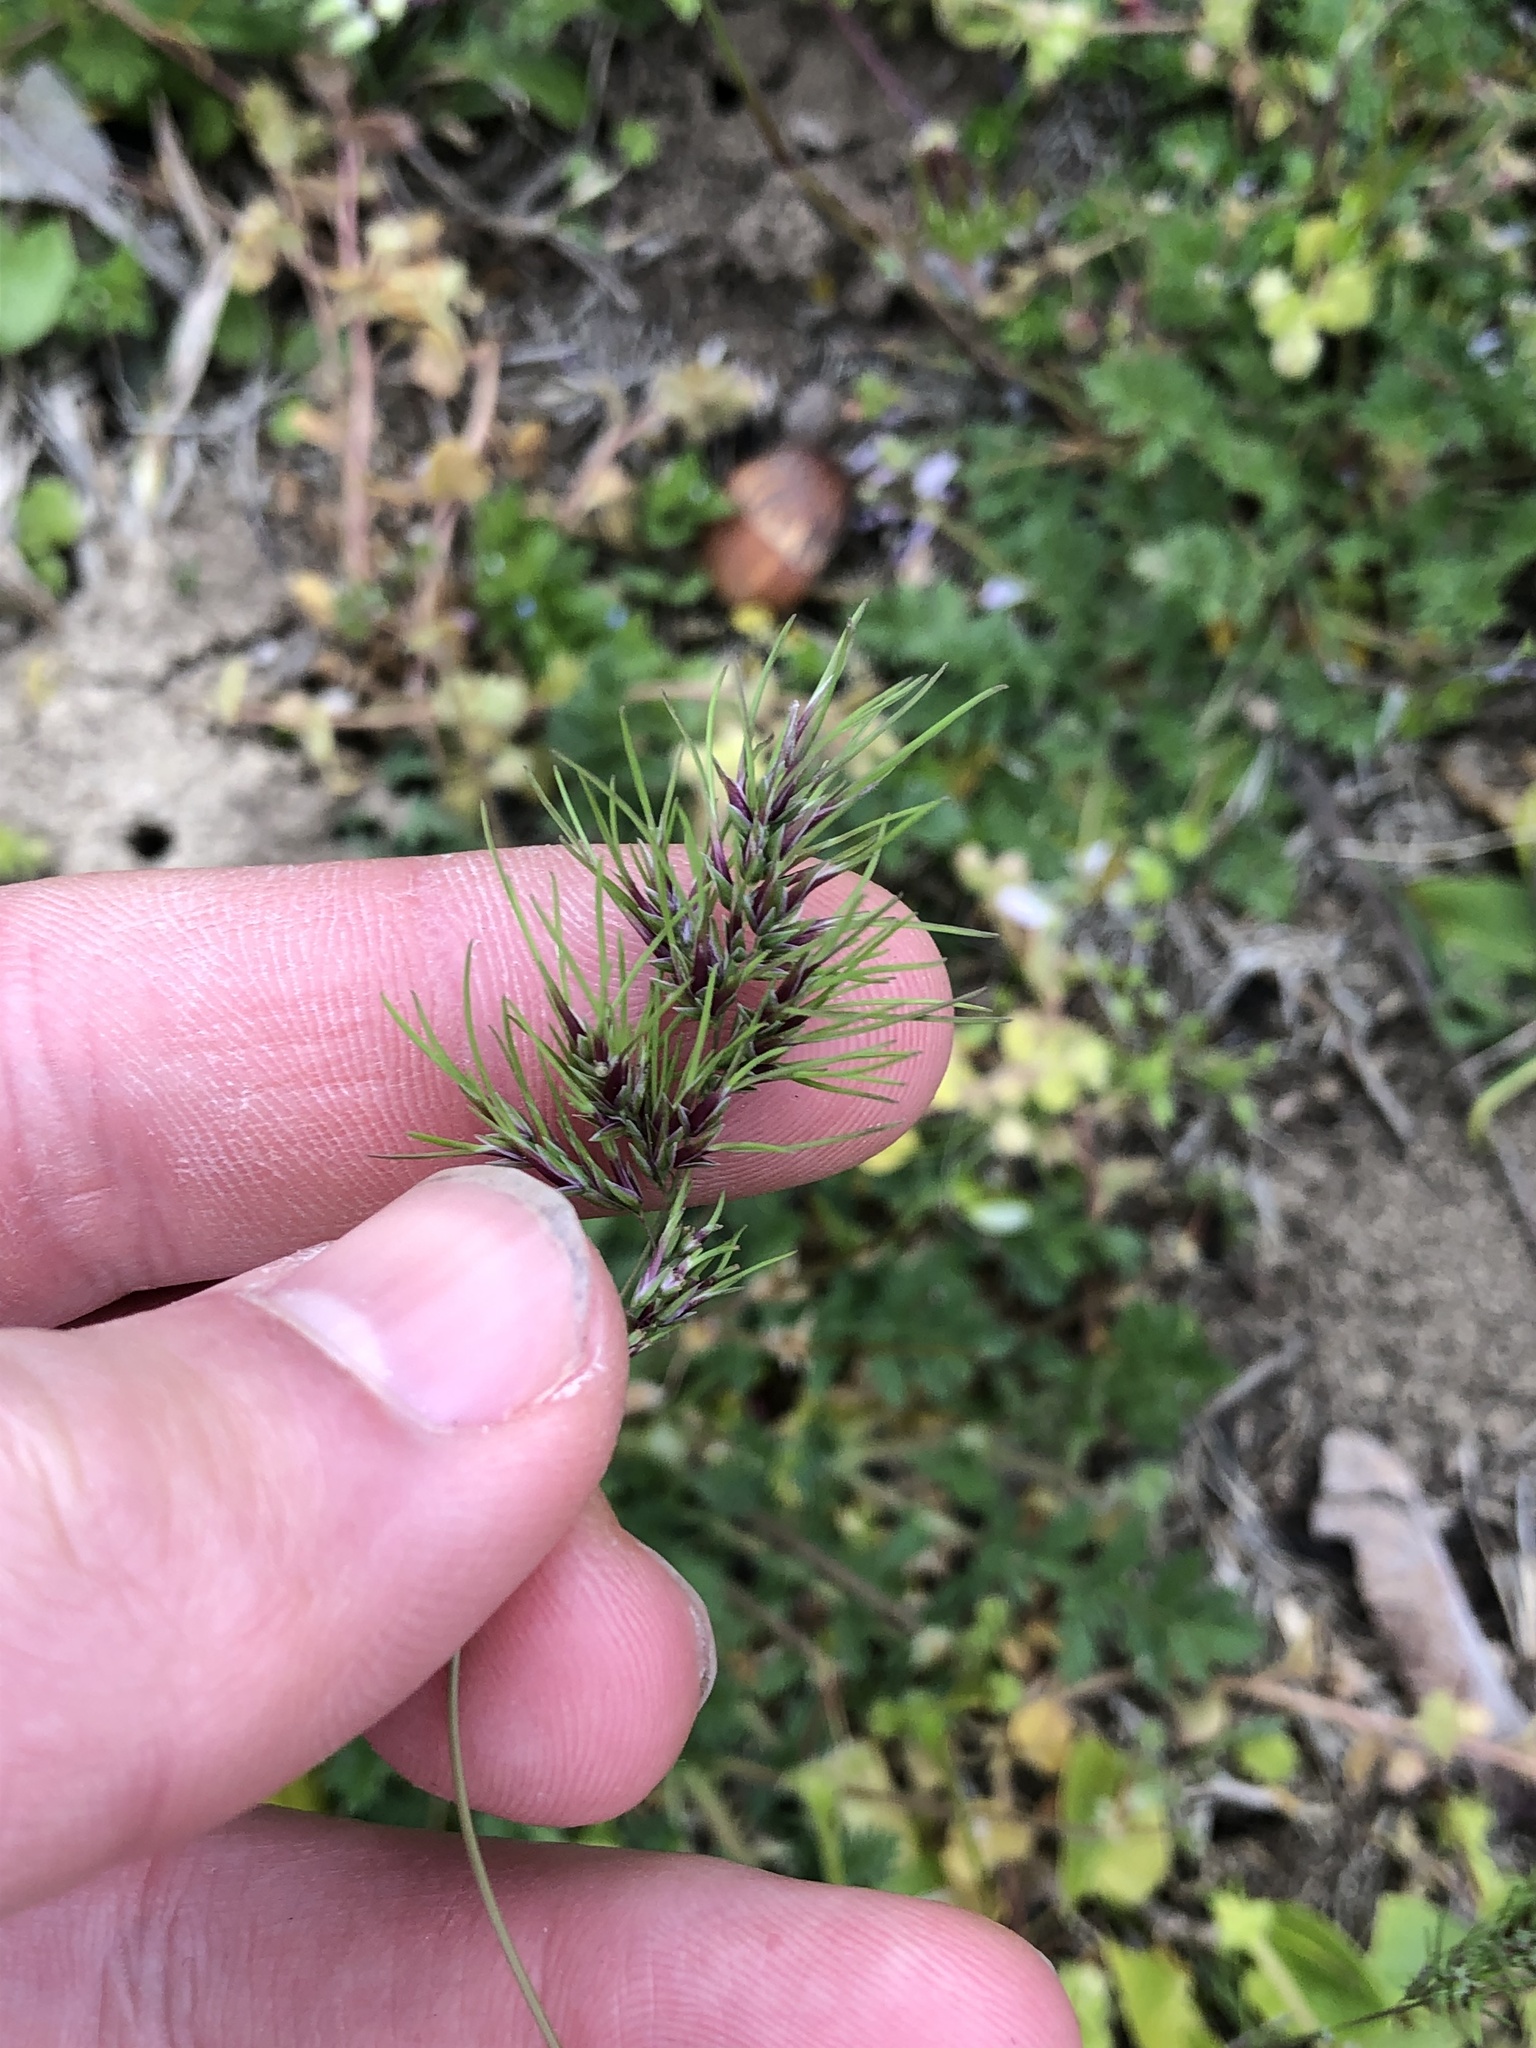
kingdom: Plantae
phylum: Tracheophyta
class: Liliopsida
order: Poales
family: Poaceae
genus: Poa
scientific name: Poa bulbosa
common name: Bulbous bluegrass
